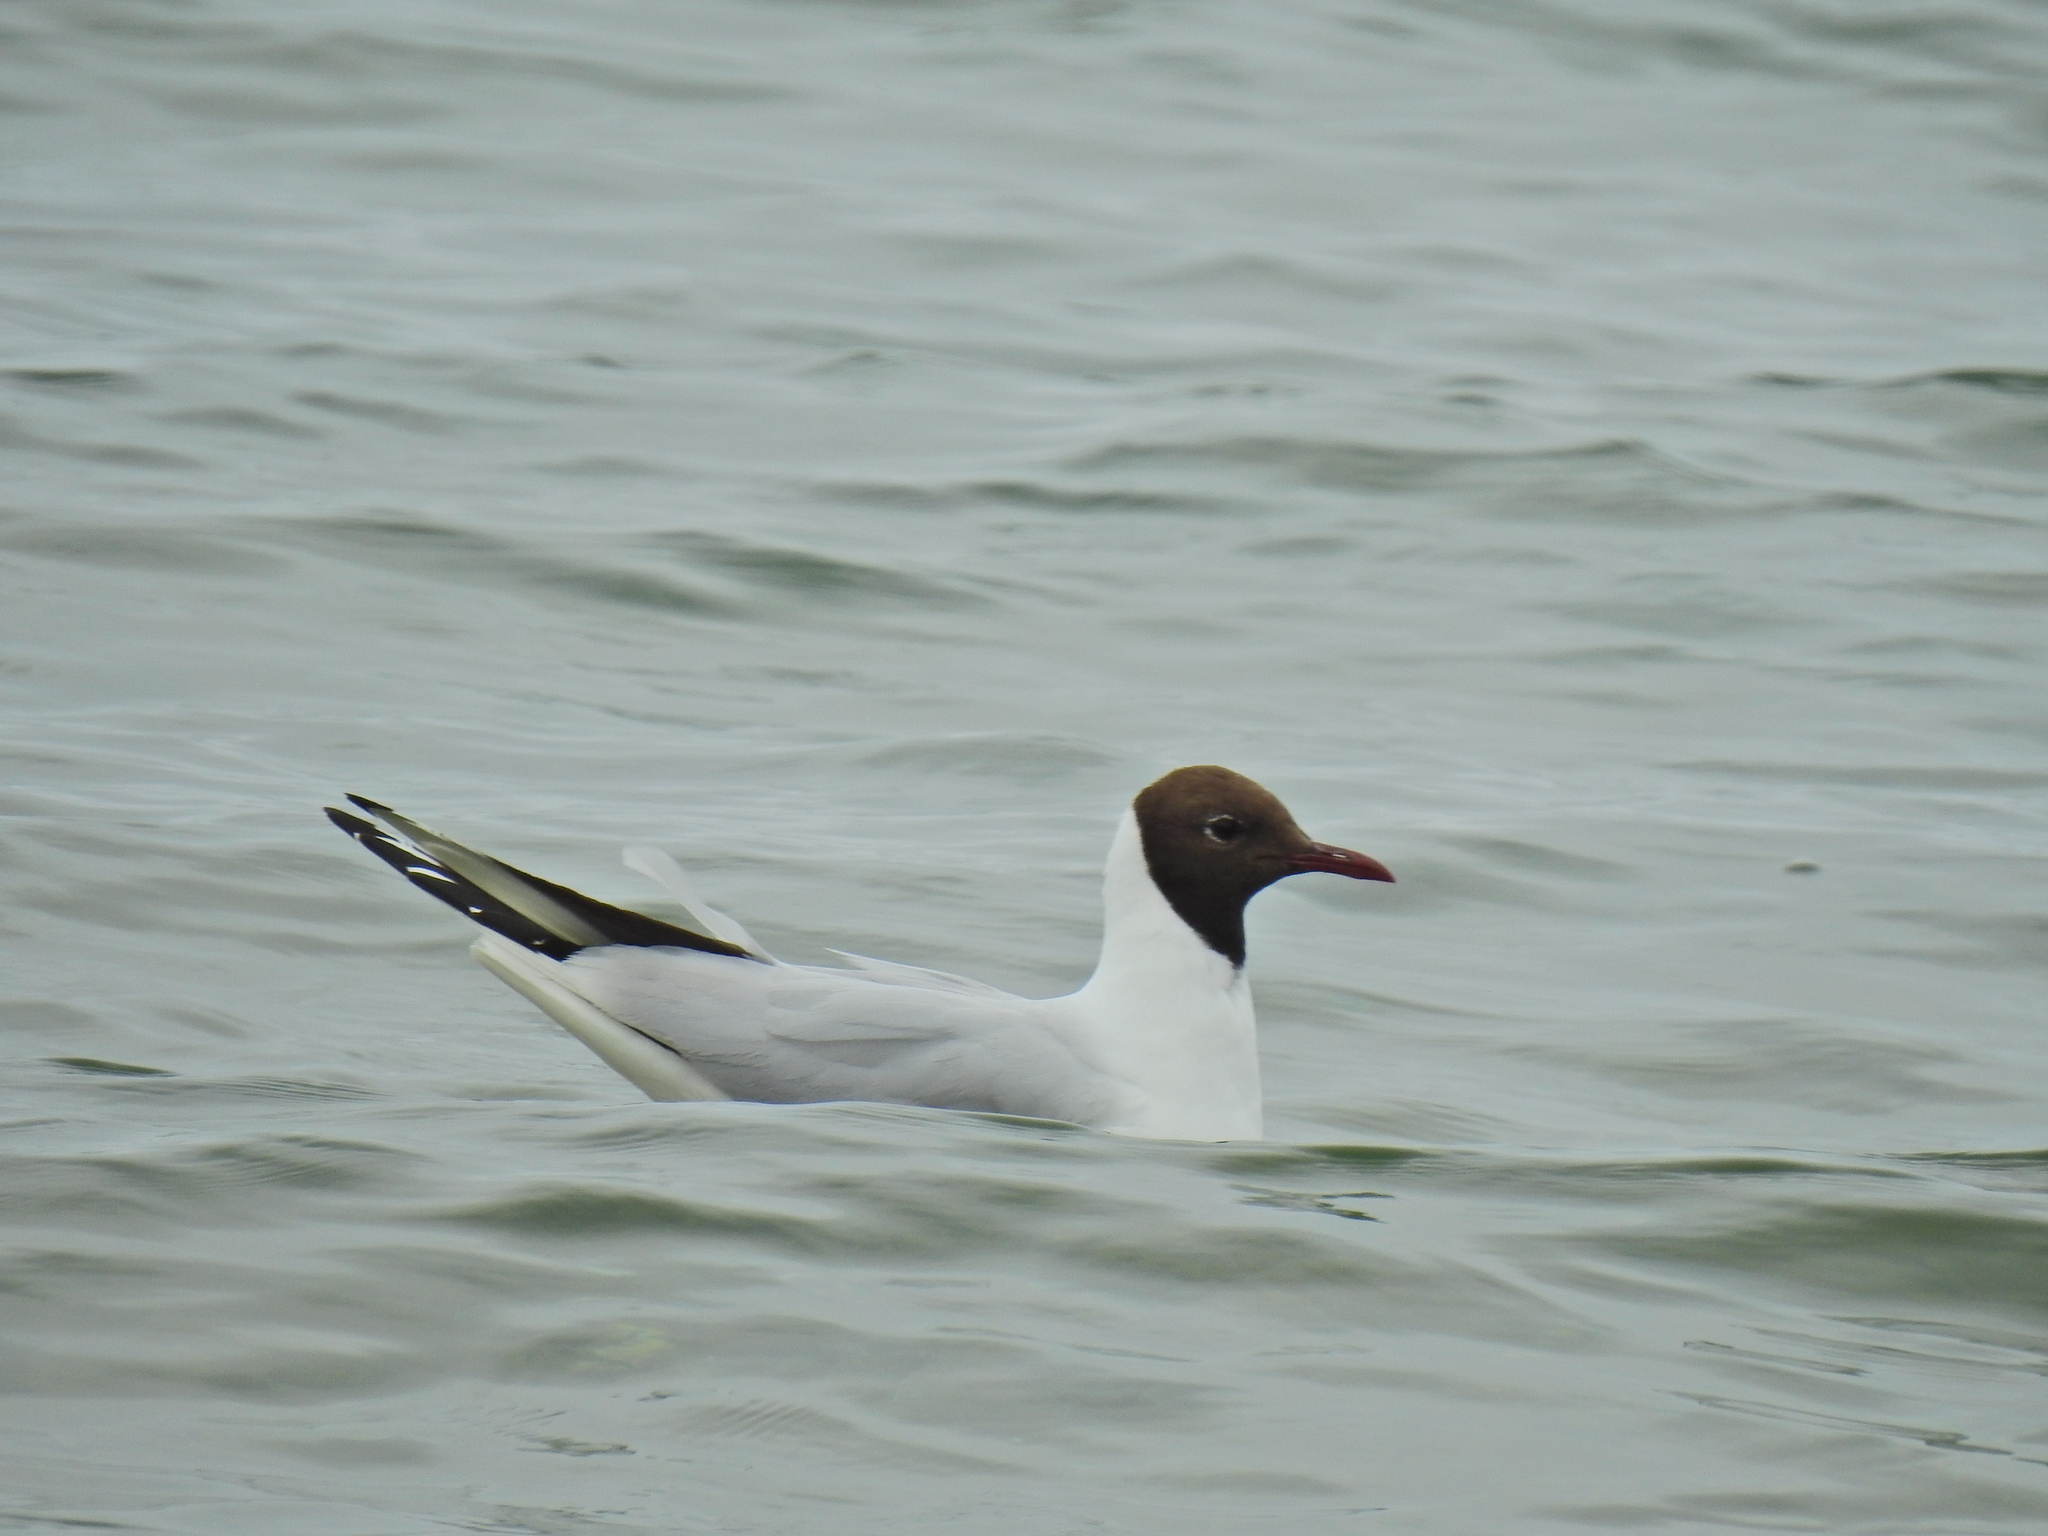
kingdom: Animalia
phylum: Chordata
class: Aves
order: Charadriiformes
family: Laridae
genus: Chroicocephalus
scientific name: Chroicocephalus ridibundus
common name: Black-headed gull
